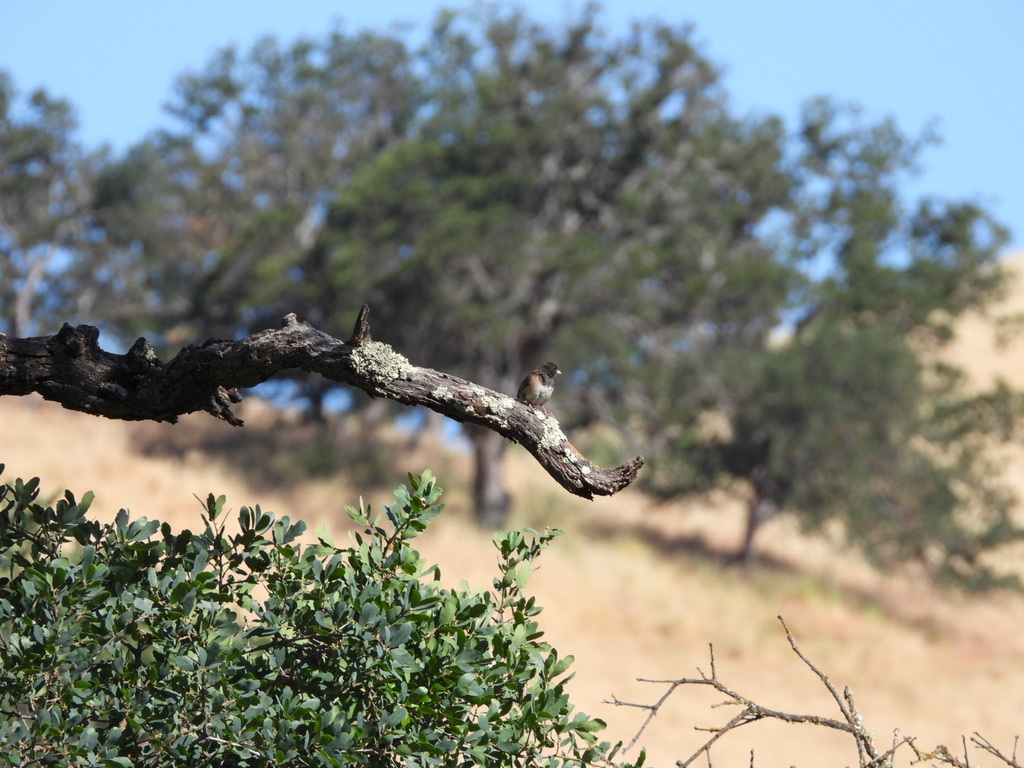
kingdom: Animalia
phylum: Chordata
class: Aves
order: Passeriformes
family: Passerellidae
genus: Junco
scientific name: Junco hyemalis
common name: Dark-eyed junco
